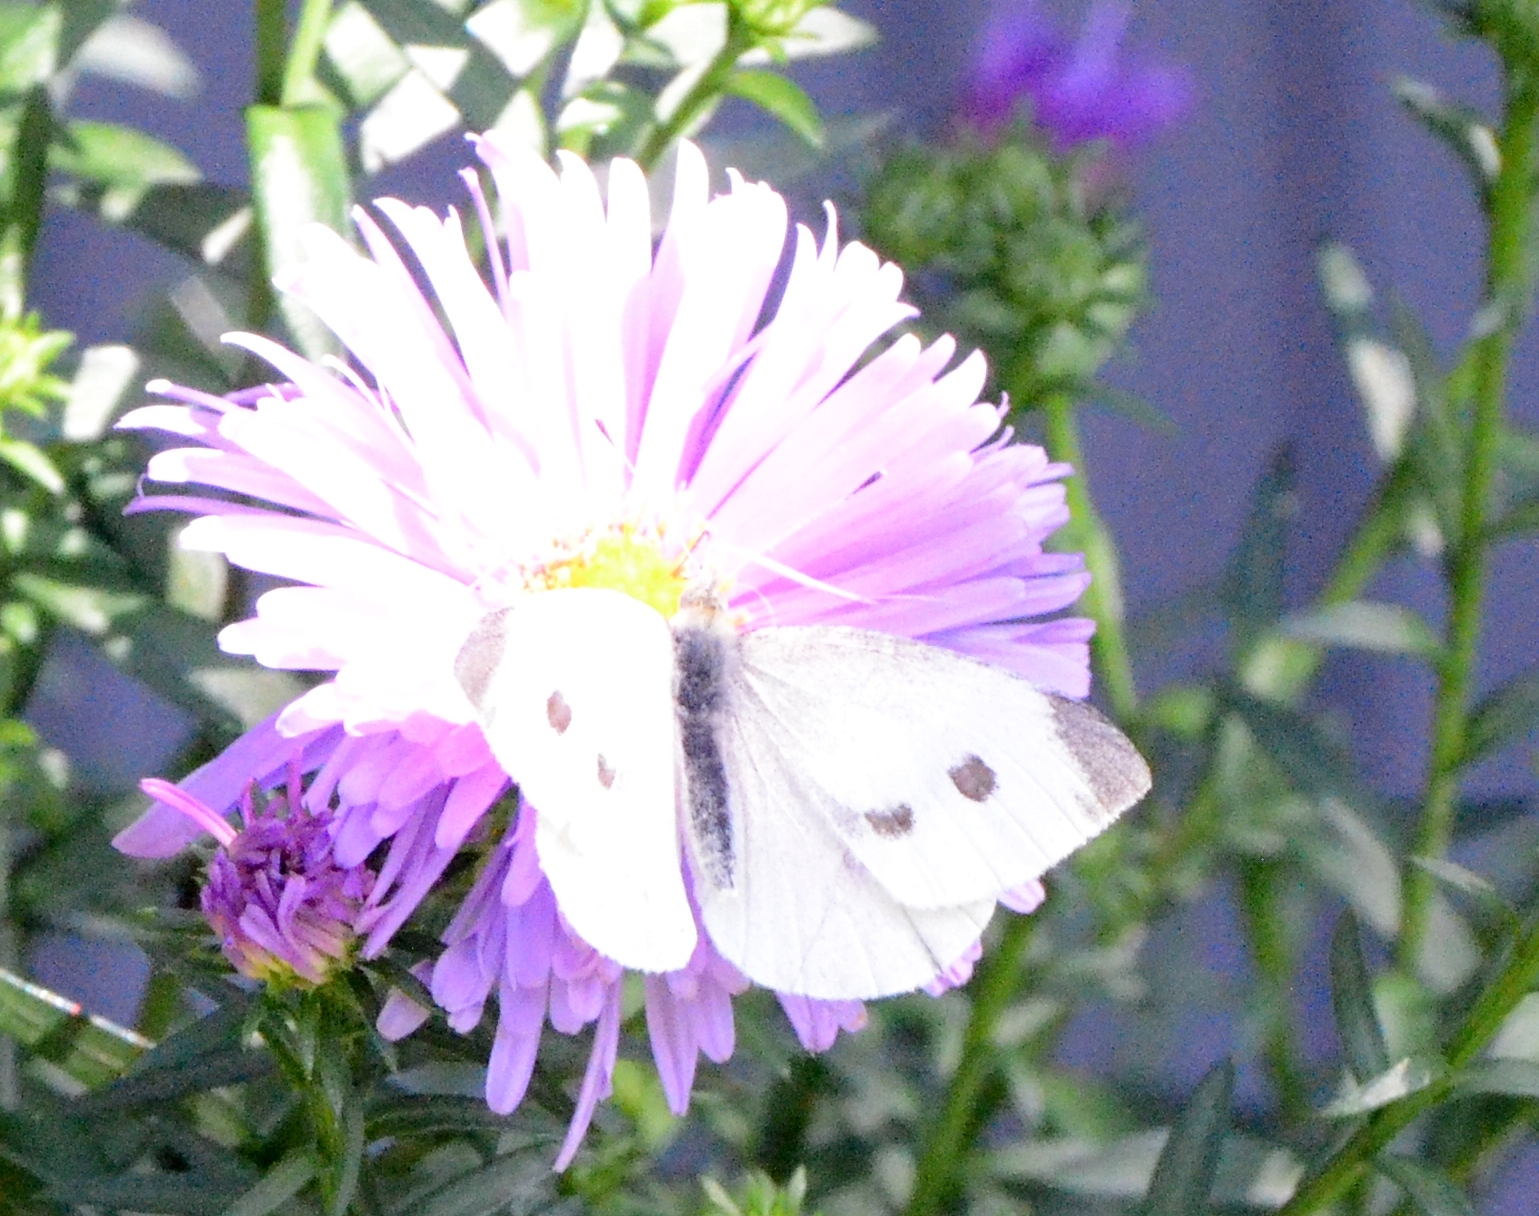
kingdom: Animalia
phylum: Arthropoda
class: Insecta
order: Lepidoptera
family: Pieridae
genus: Pieris
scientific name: Pieris rapae
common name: Small white
